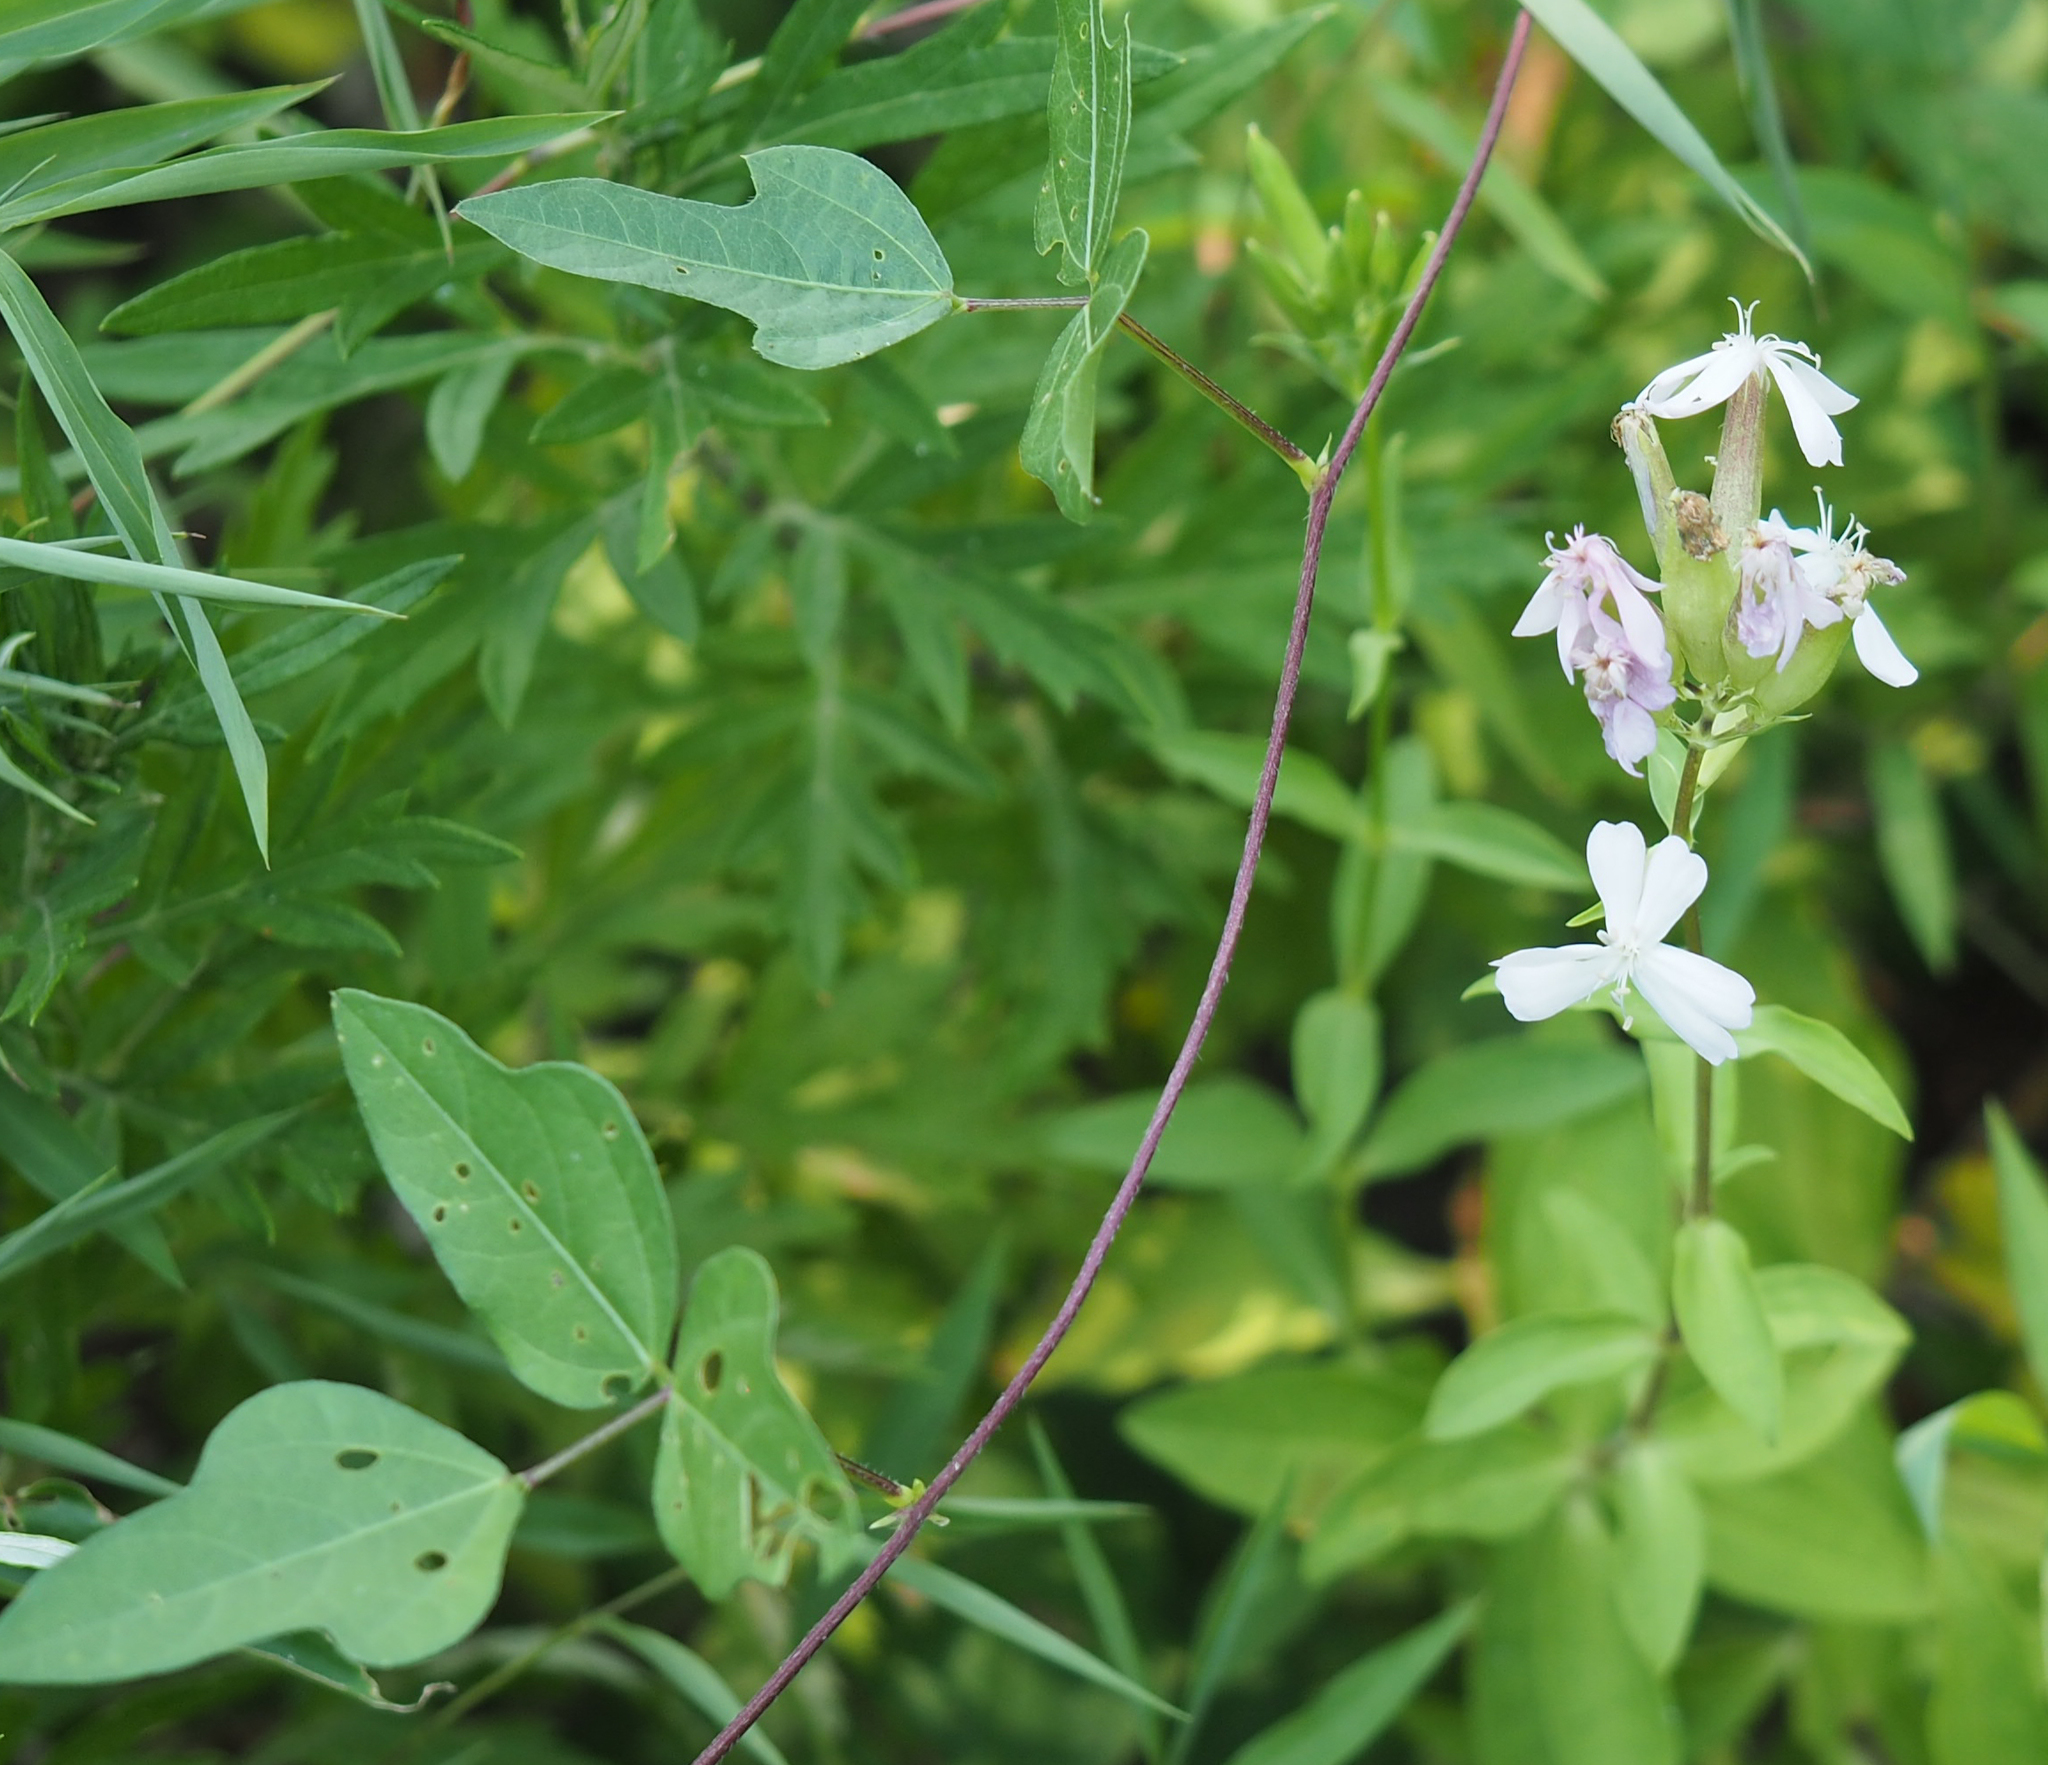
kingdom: Plantae
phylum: Tracheophyta
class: Magnoliopsida
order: Caryophyllales
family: Caryophyllaceae
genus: Saponaria
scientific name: Saponaria officinalis
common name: Soapwort
